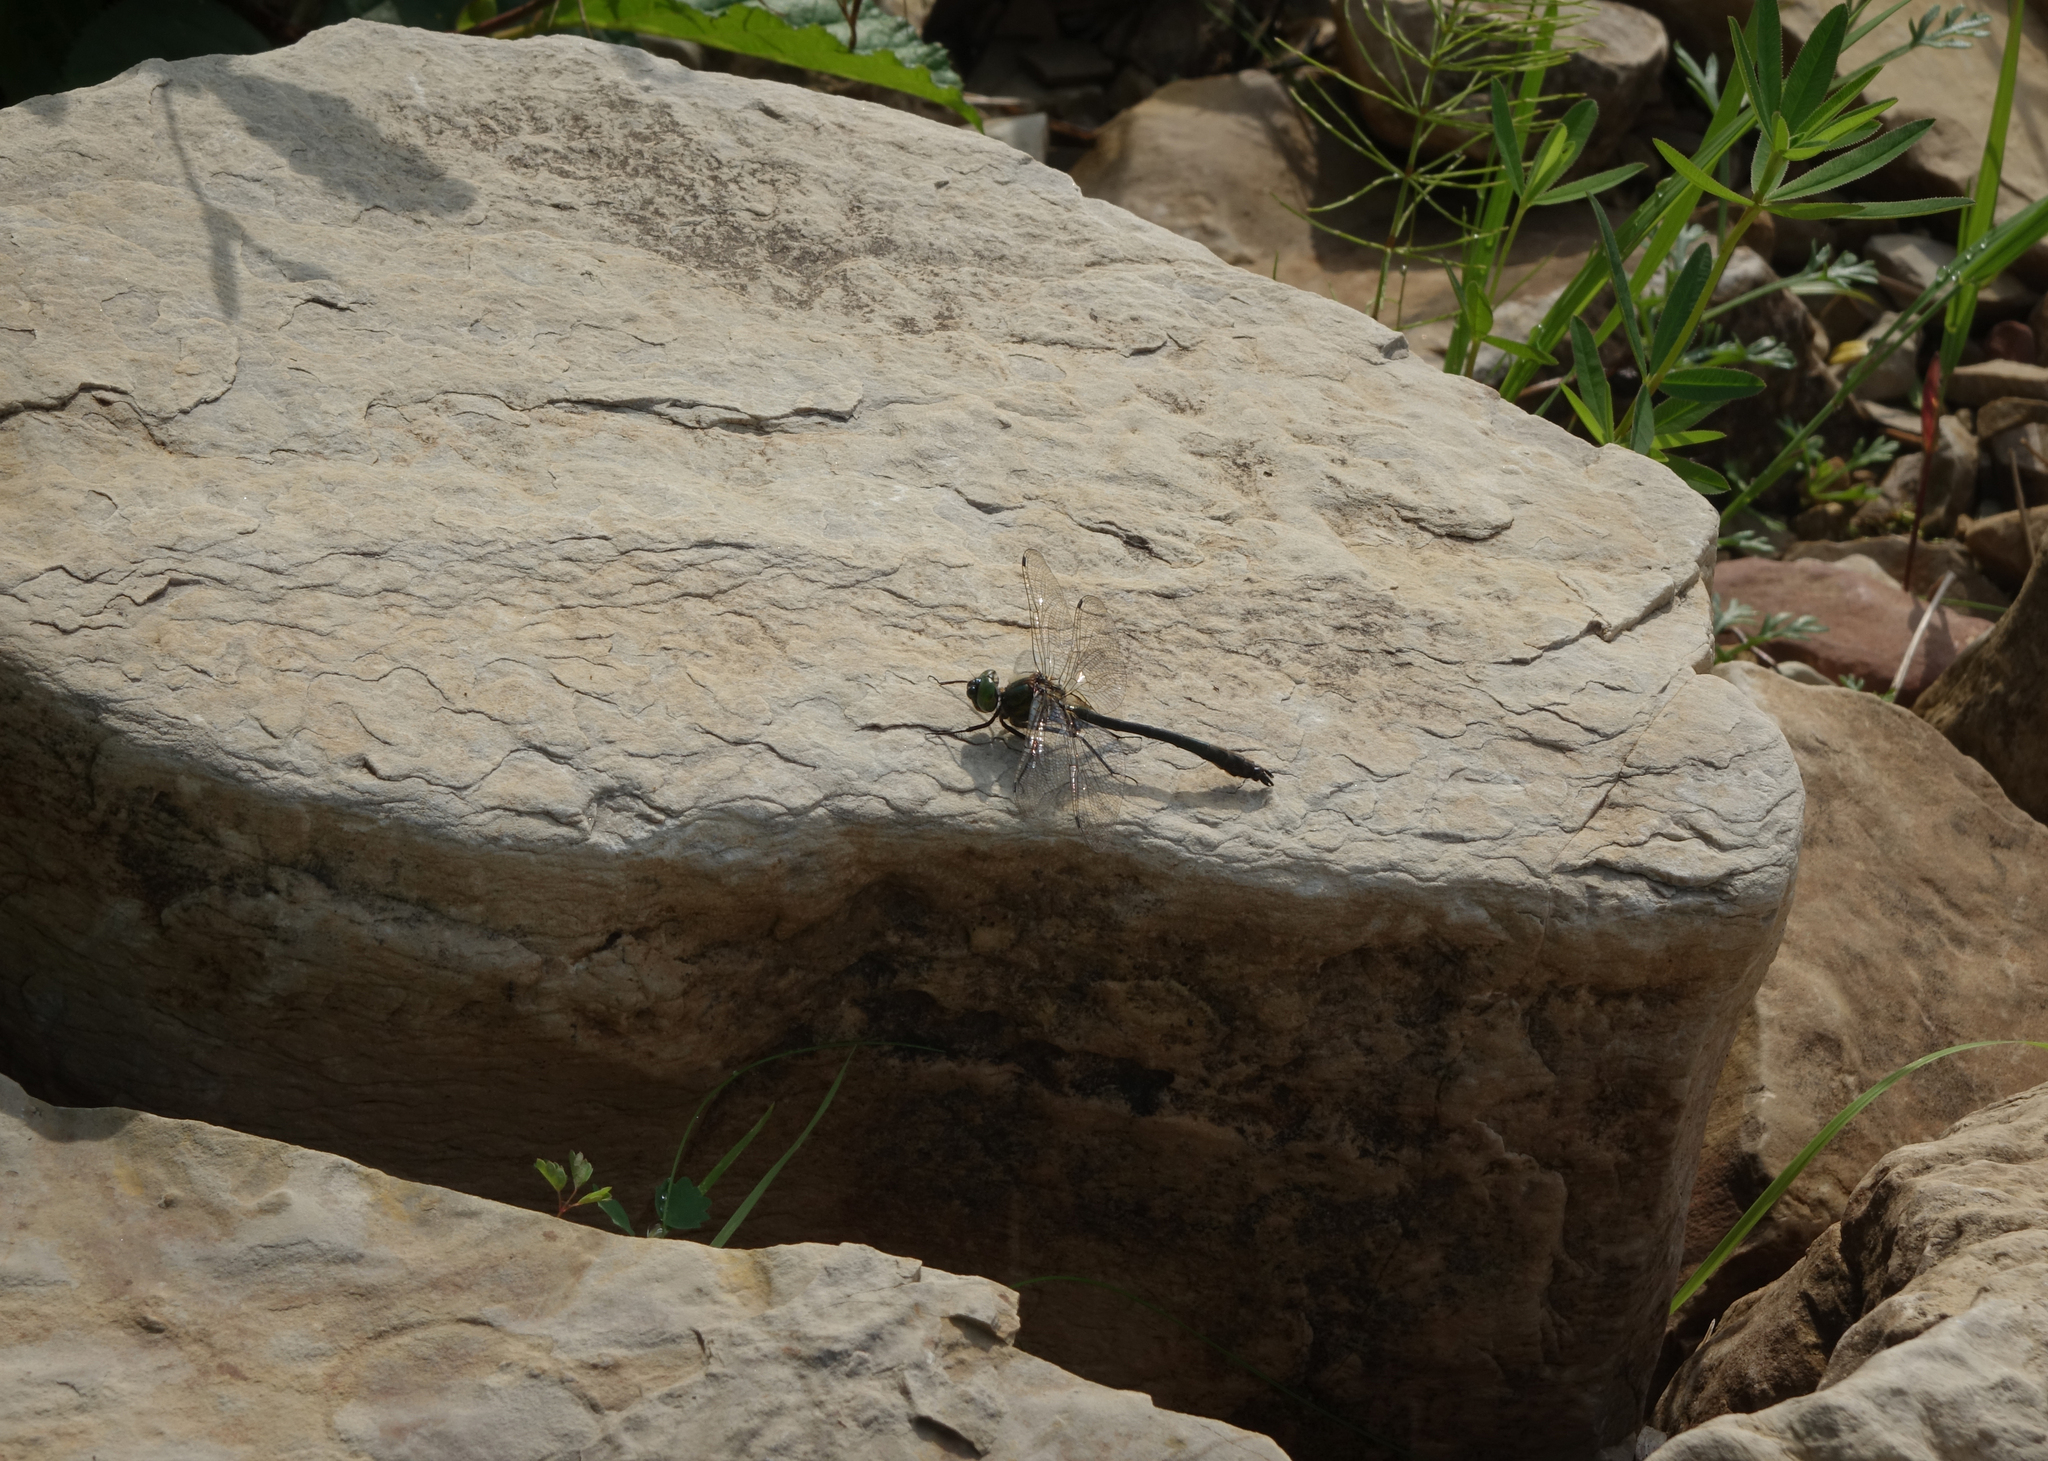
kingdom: Animalia
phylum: Arthropoda
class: Insecta
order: Odonata
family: Corduliidae
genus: Cordulia
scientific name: Cordulia aenea
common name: Downy emerald
